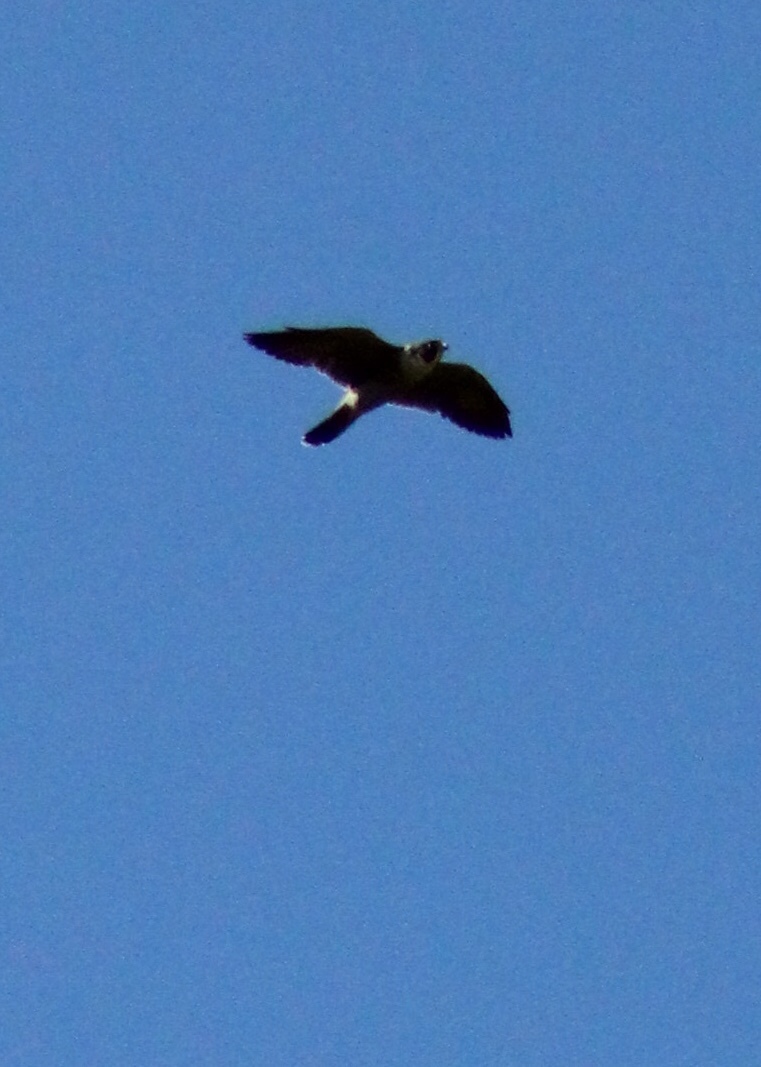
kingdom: Animalia
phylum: Chordata
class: Aves
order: Falconiformes
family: Falconidae
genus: Falco
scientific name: Falco peregrinus
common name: Peregrine falcon
